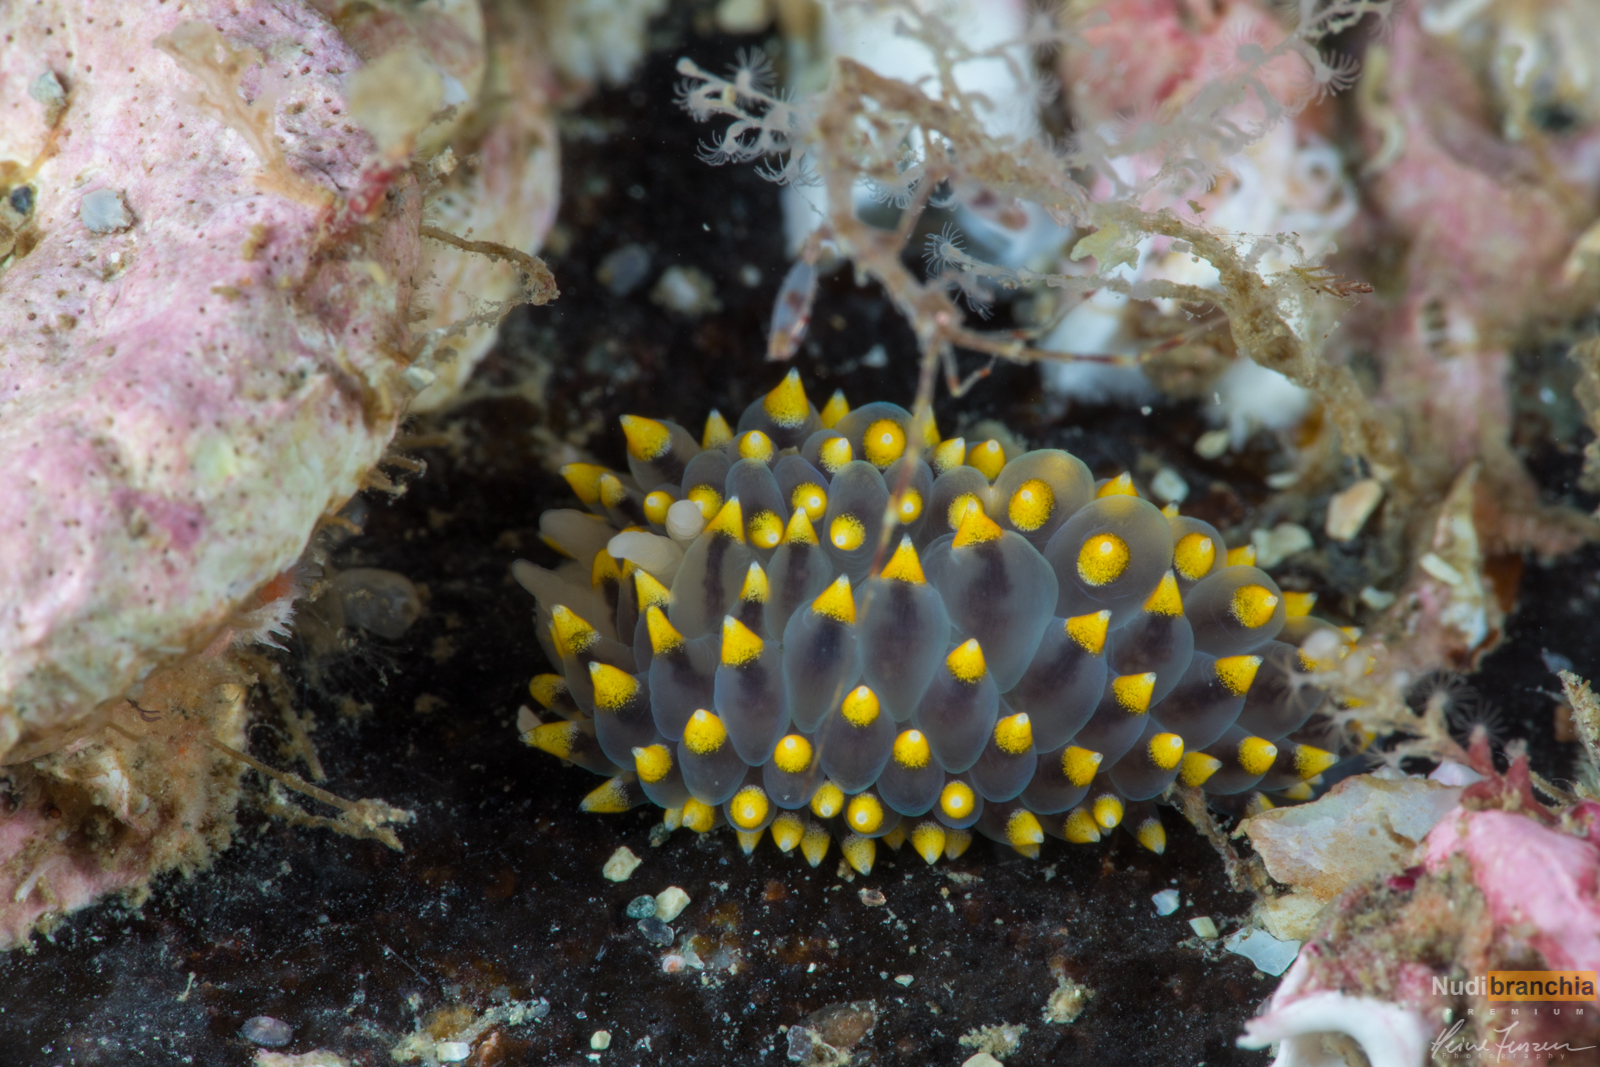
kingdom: Animalia
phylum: Mollusca
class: Gastropoda
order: Nudibranchia
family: Eubranchidae
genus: Eubranchus
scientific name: Eubranchus tricolor
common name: Painted balloon aeolis
